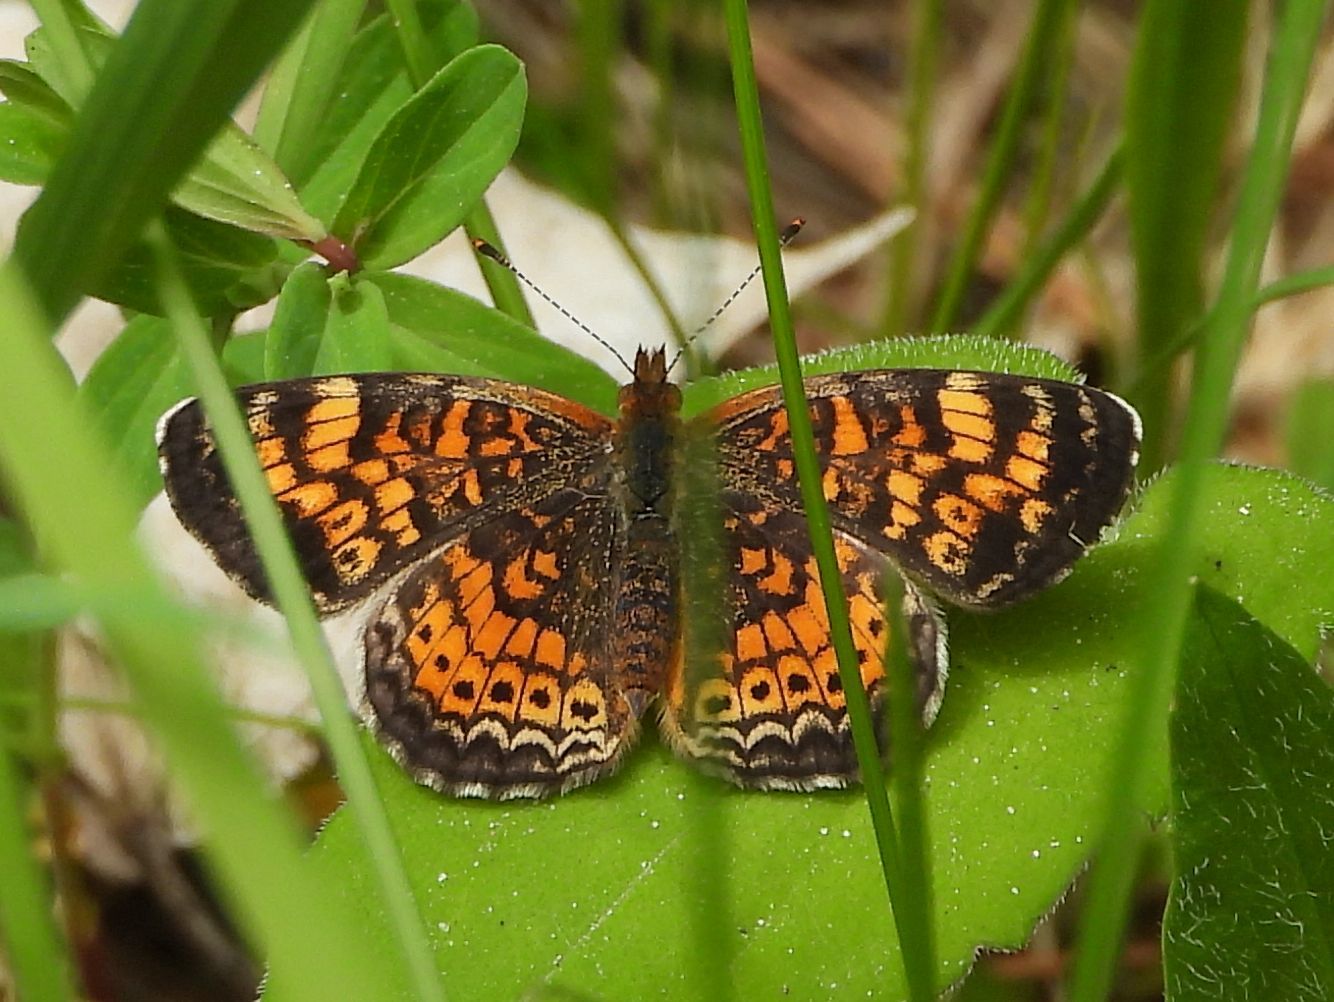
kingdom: Animalia
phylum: Arthropoda
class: Insecta
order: Lepidoptera
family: Nymphalidae
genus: Phyciodes
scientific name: Phyciodes tharos
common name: Pearl crescent
